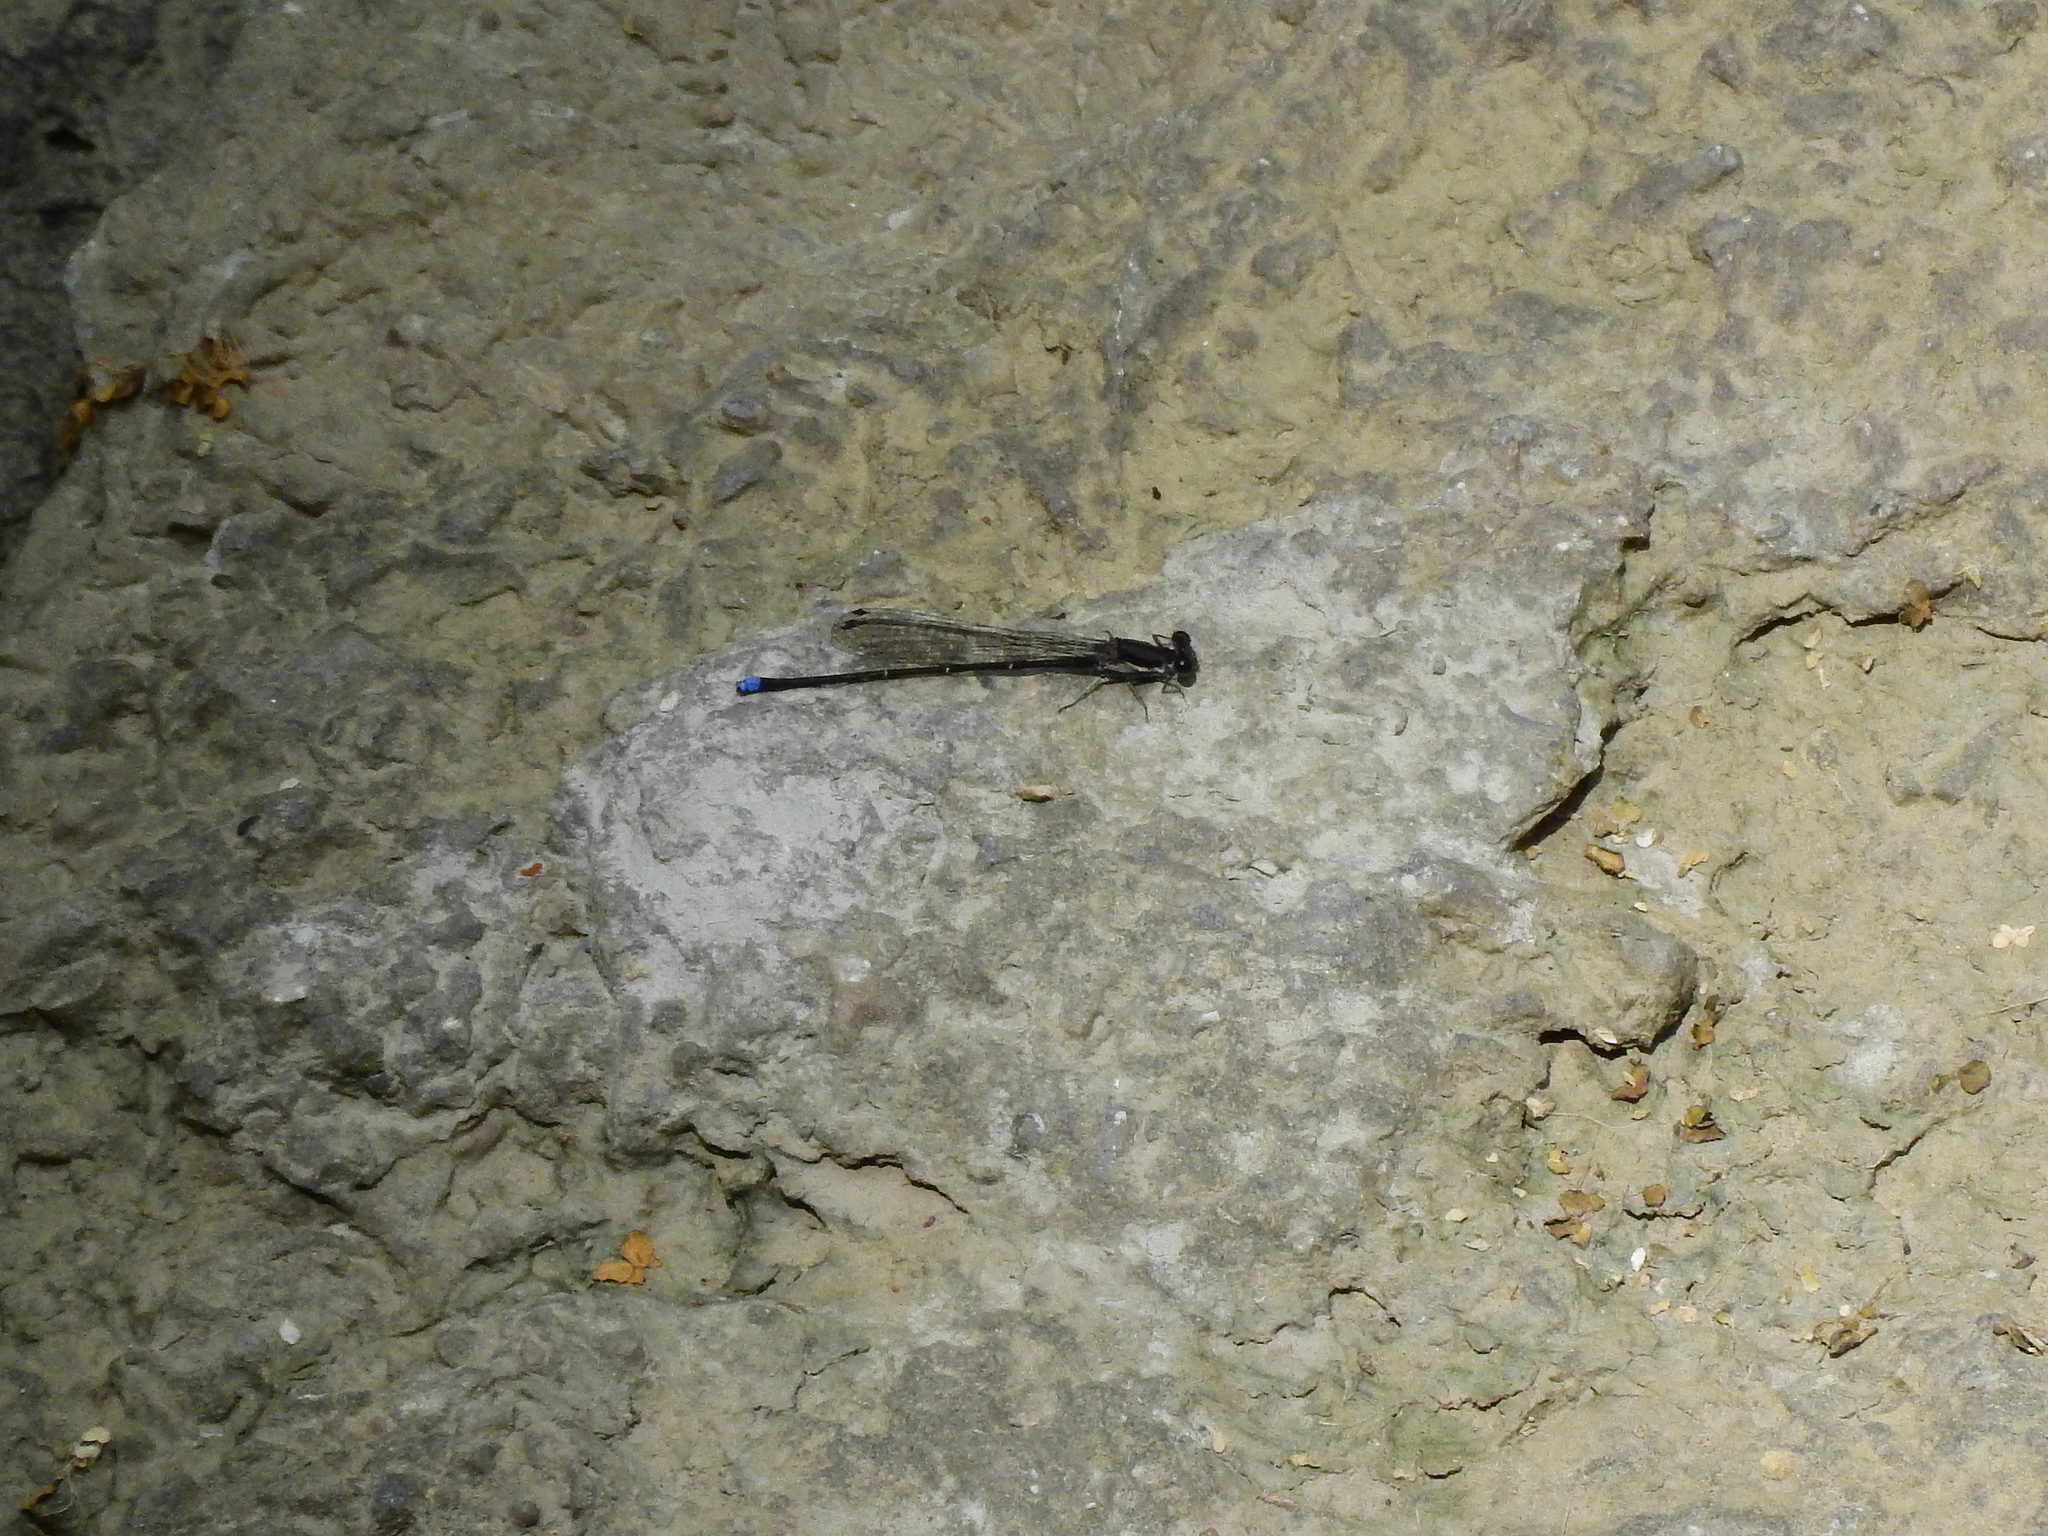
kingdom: Animalia
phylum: Arthropoda
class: Insecta
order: Odonata
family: Coenagrionidae
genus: Argia
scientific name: Argia tibialis
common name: Blue-tipped dancer
